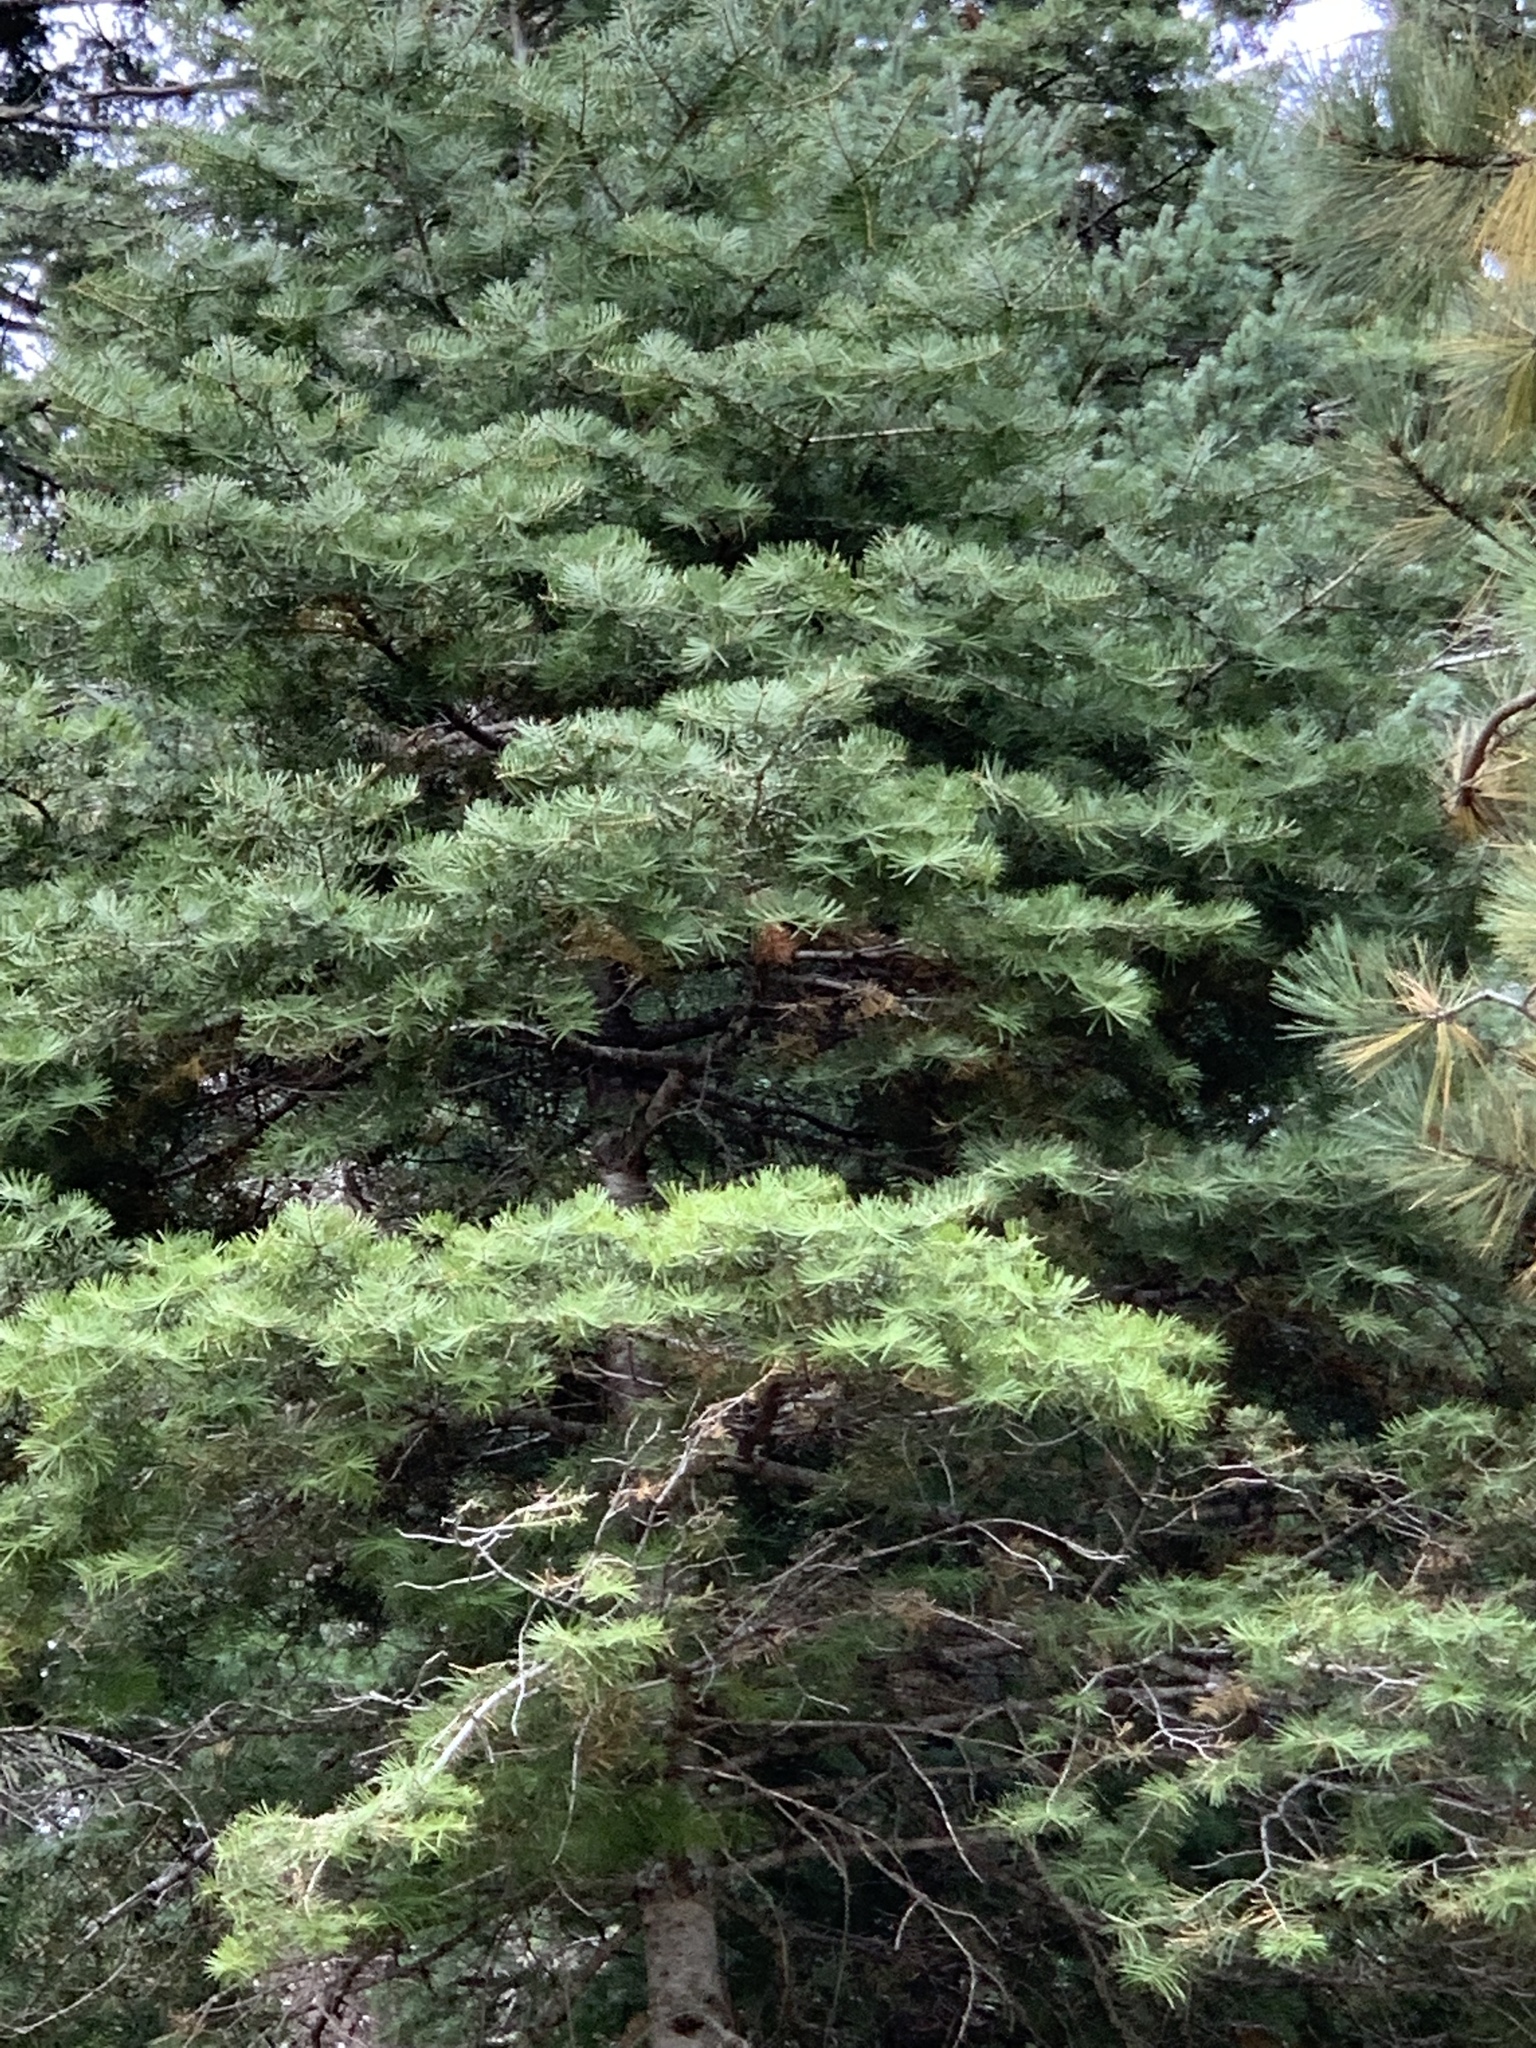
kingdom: Plantae
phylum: Tracheophyta
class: Pinopsida
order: Pinales
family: Pinaceae
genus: Abies
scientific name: Abies concolor
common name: Colorado fir
